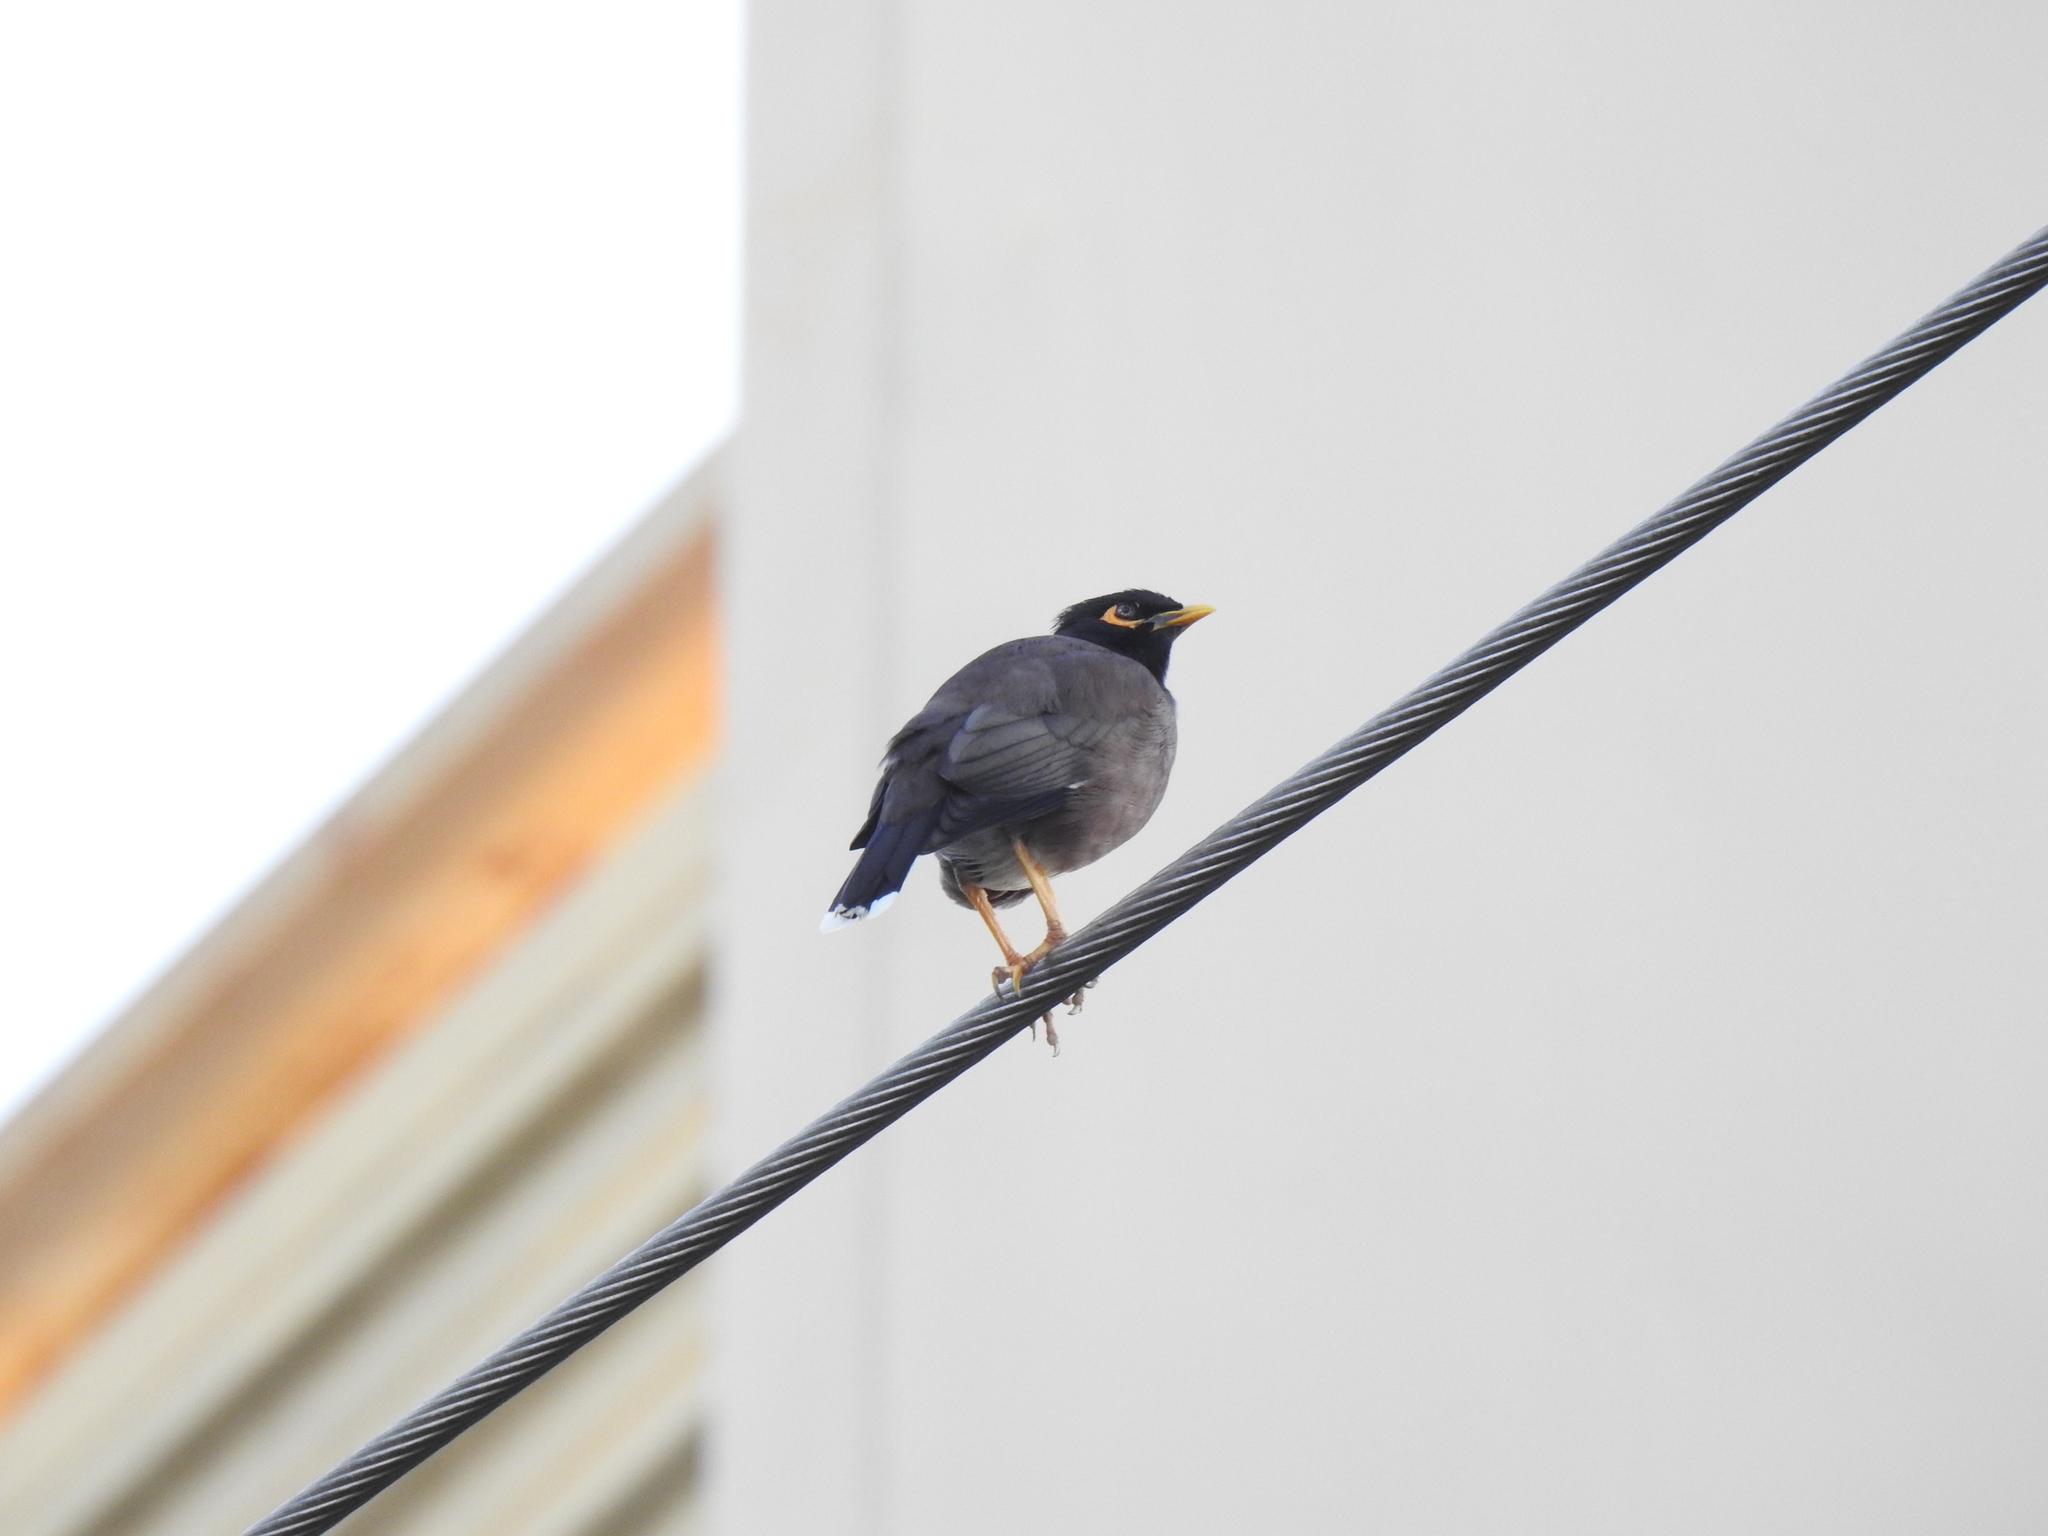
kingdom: Animalia
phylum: Chordata
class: Aves
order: Passeriformes
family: Sturnidae
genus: Acridotheres
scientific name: Acridotheres tristis
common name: Common myna
